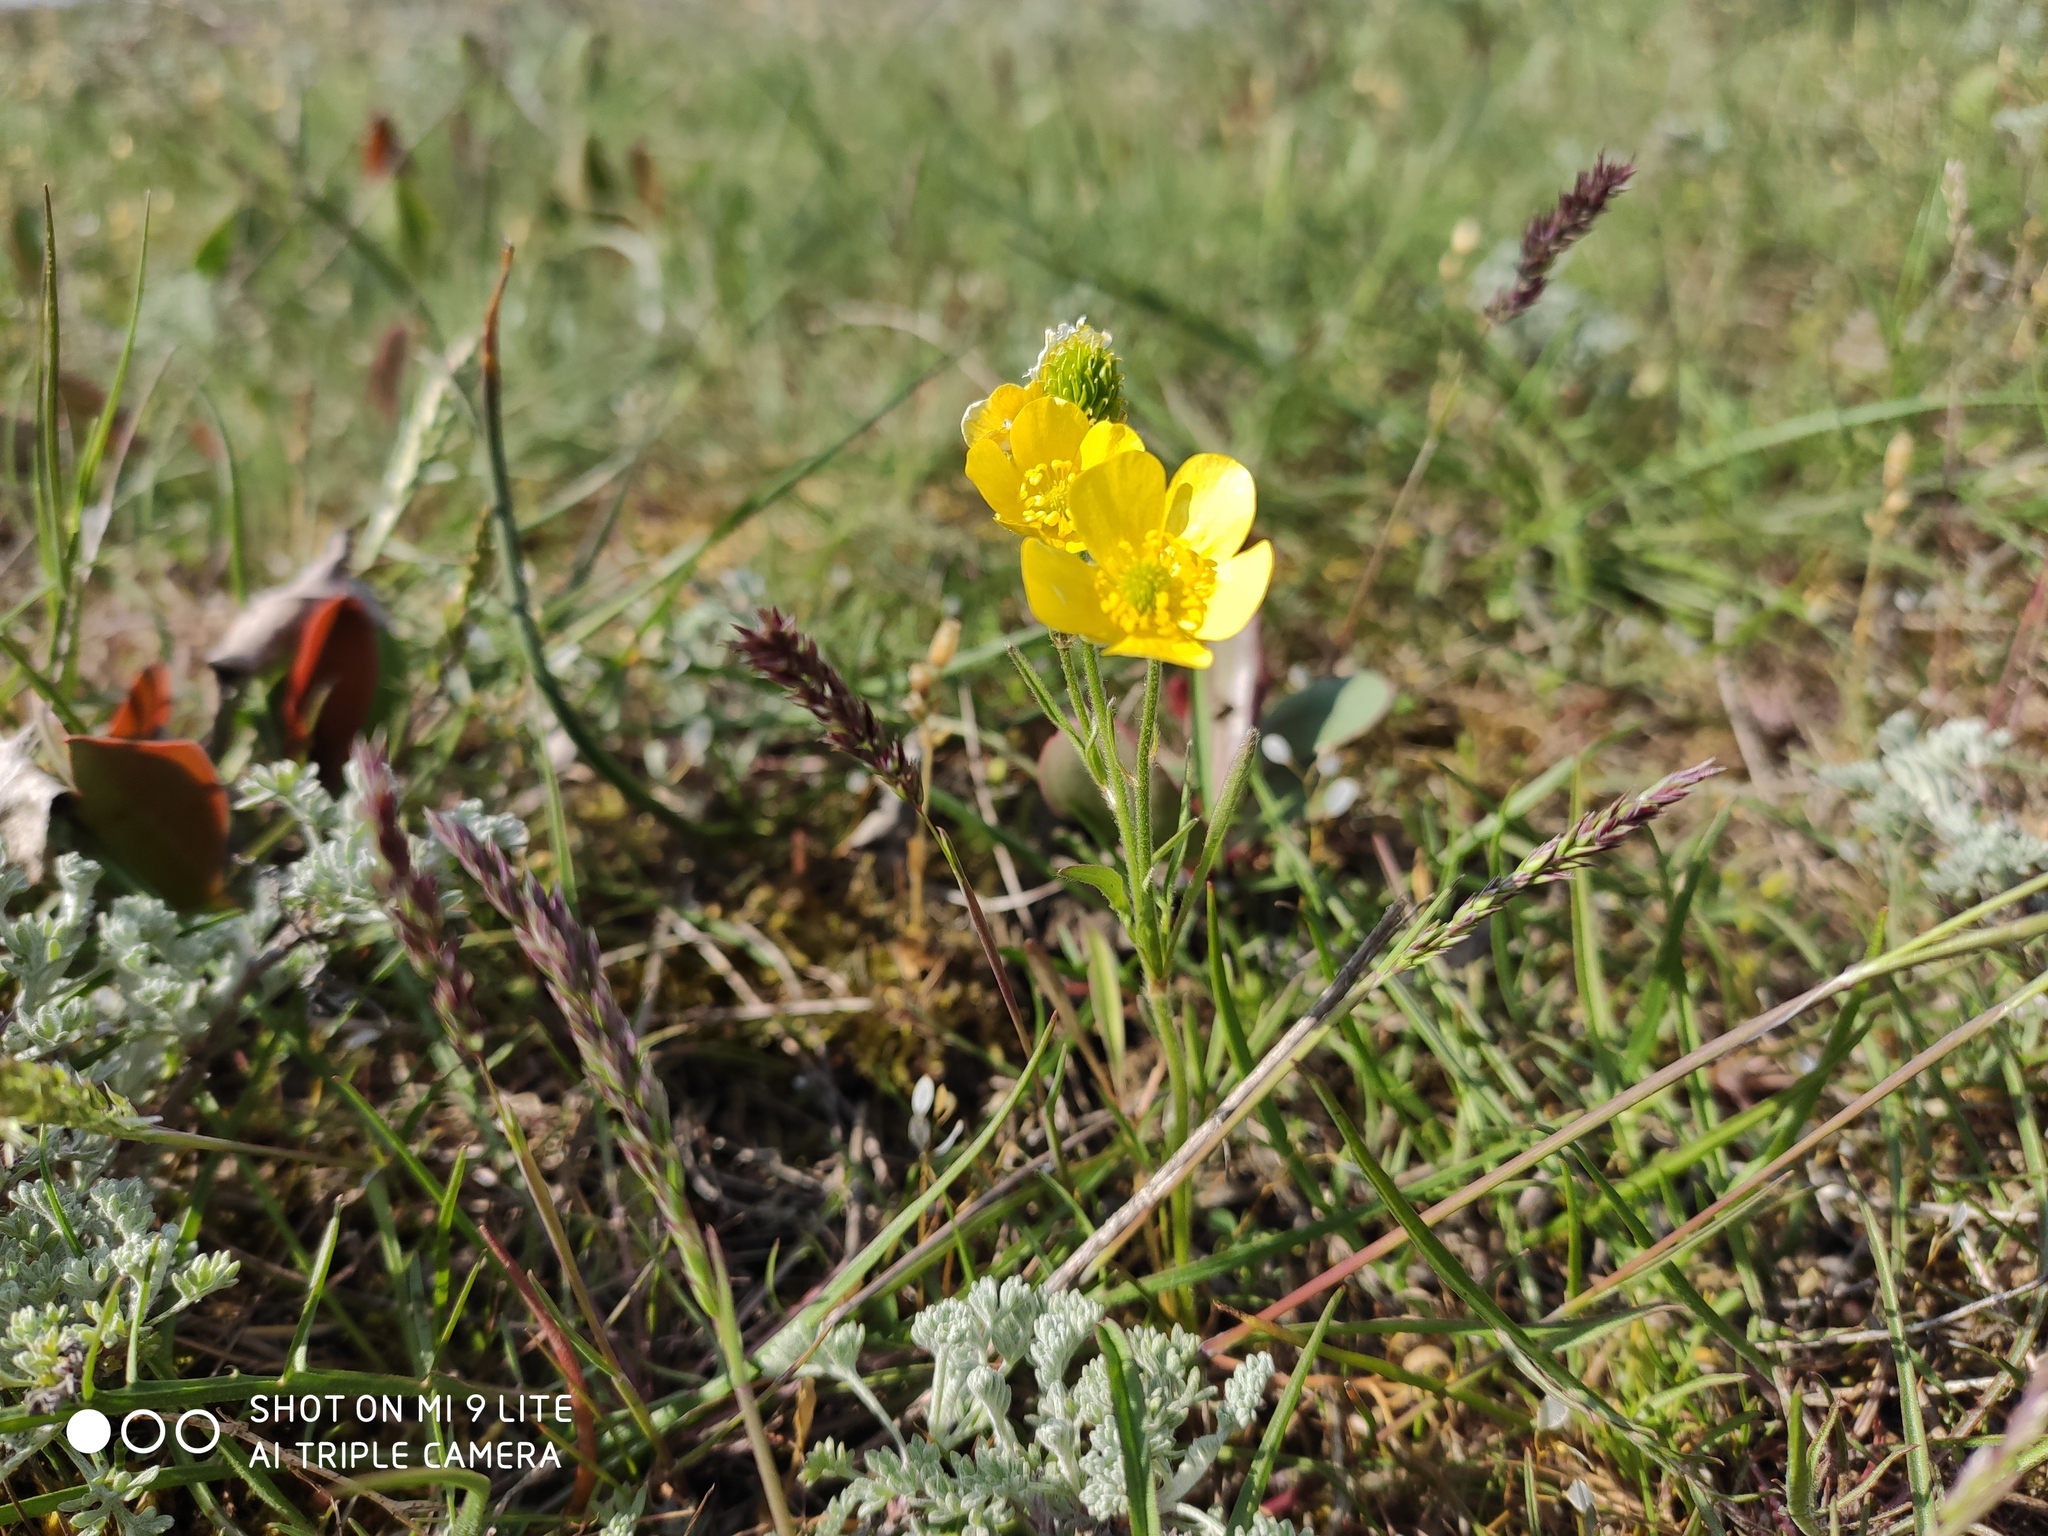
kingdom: Plantae
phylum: Tracheophyta
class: Magnoliopsida
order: Ranunculales
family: Ranunculaceae
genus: Ranunculus
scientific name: Ranunculus oxyspermus
